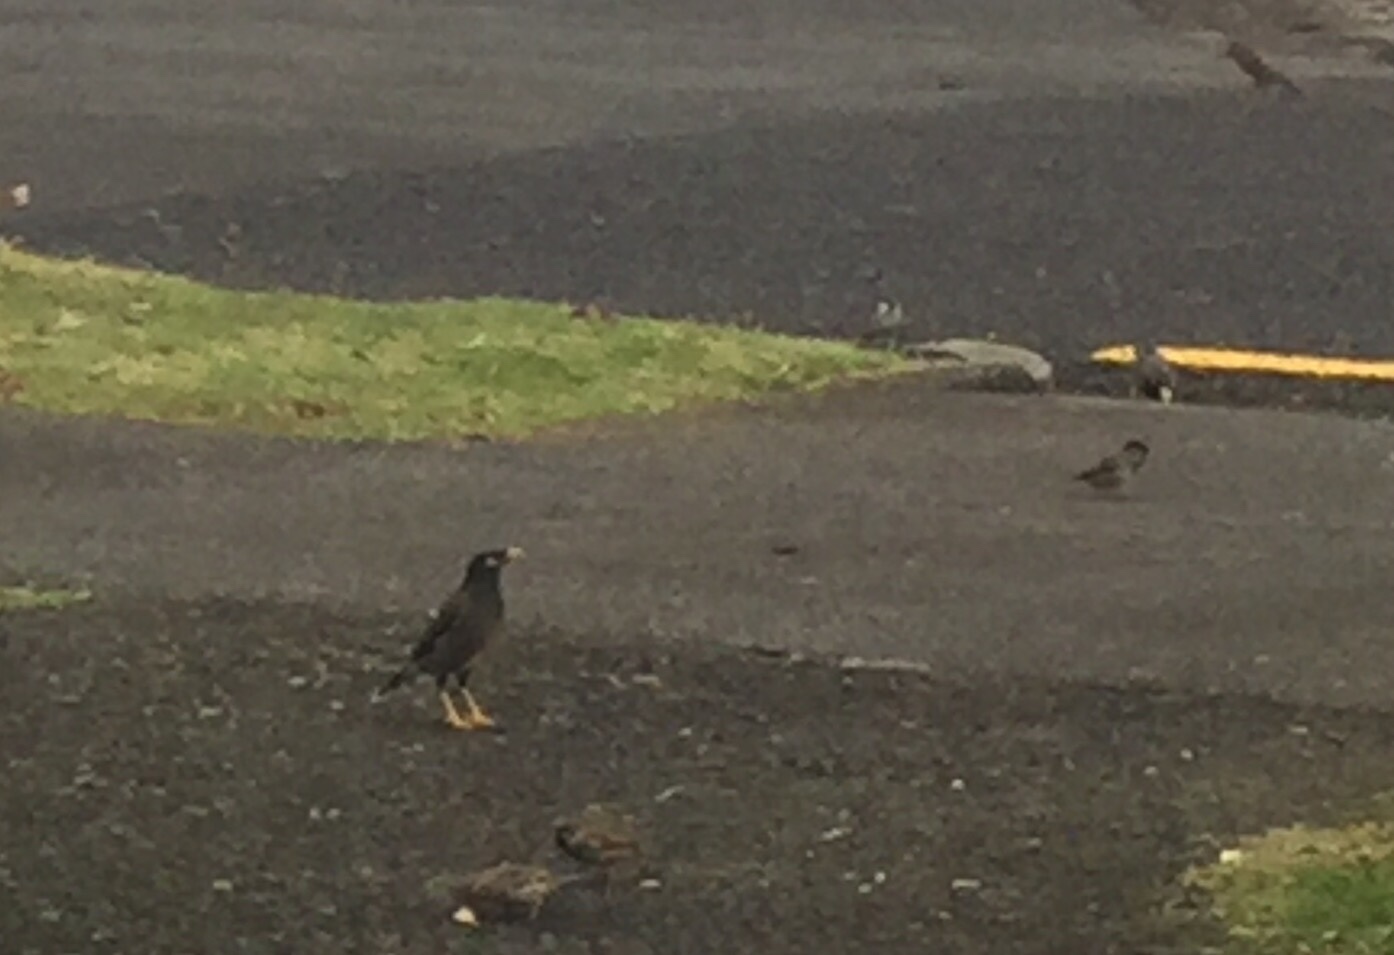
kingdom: Animalia
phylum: Chordata
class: Aves
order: Passeriformes
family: Sturnidae
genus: Acridotheres
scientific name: Acridotheres tristis
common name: Common myna
